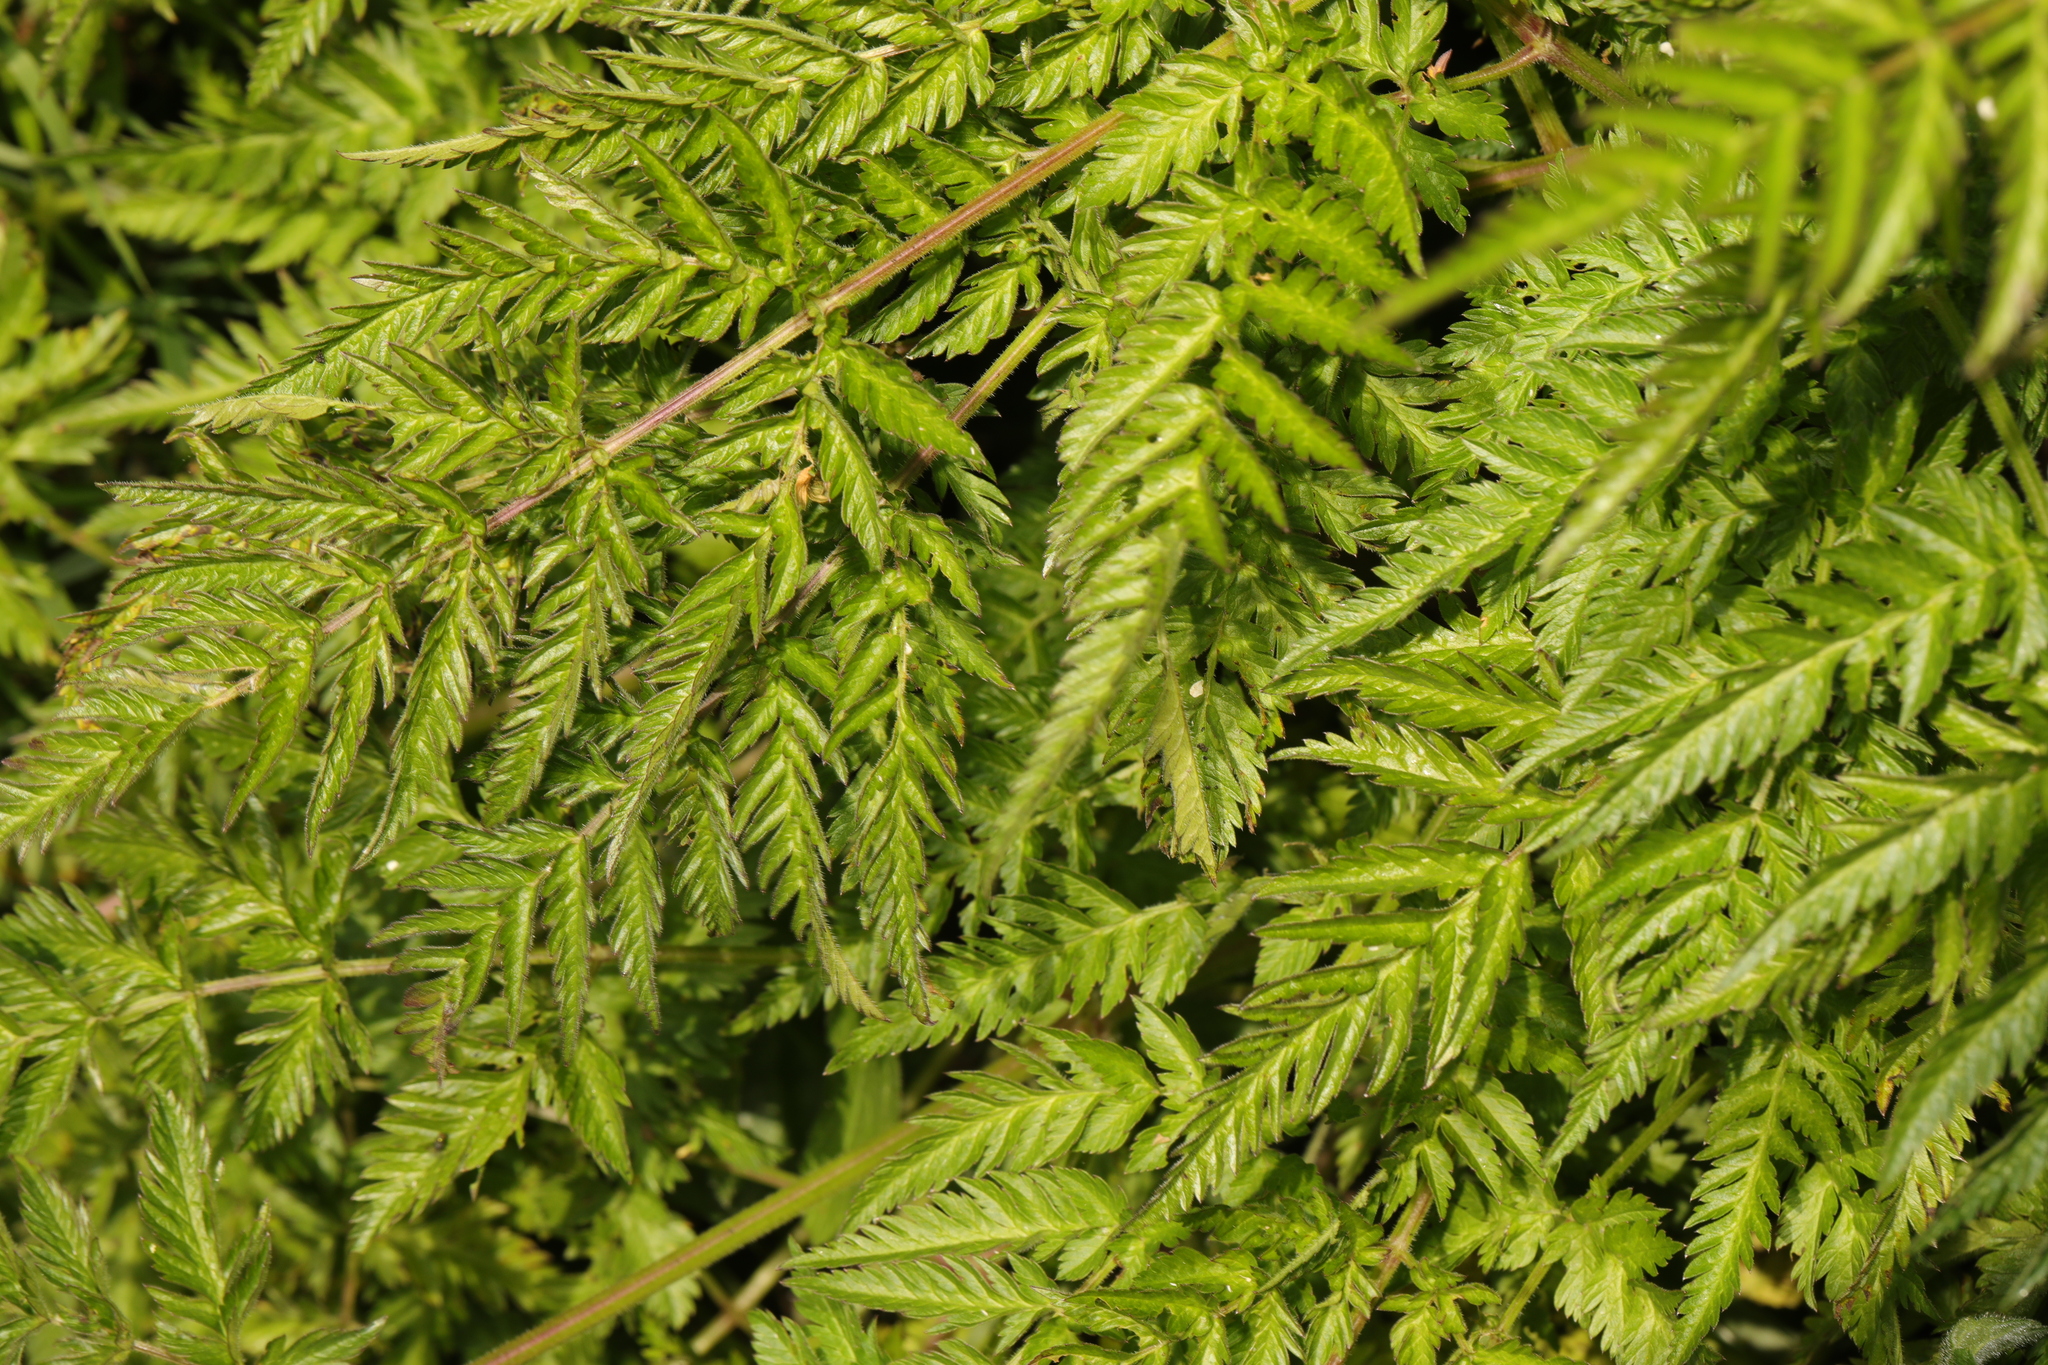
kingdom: Plantae
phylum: Tracheophyta
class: Magnoliopsida
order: Apiales
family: Apiaceae
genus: Anthriscus
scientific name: Anthriscus sylvestris
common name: Cow parsley
